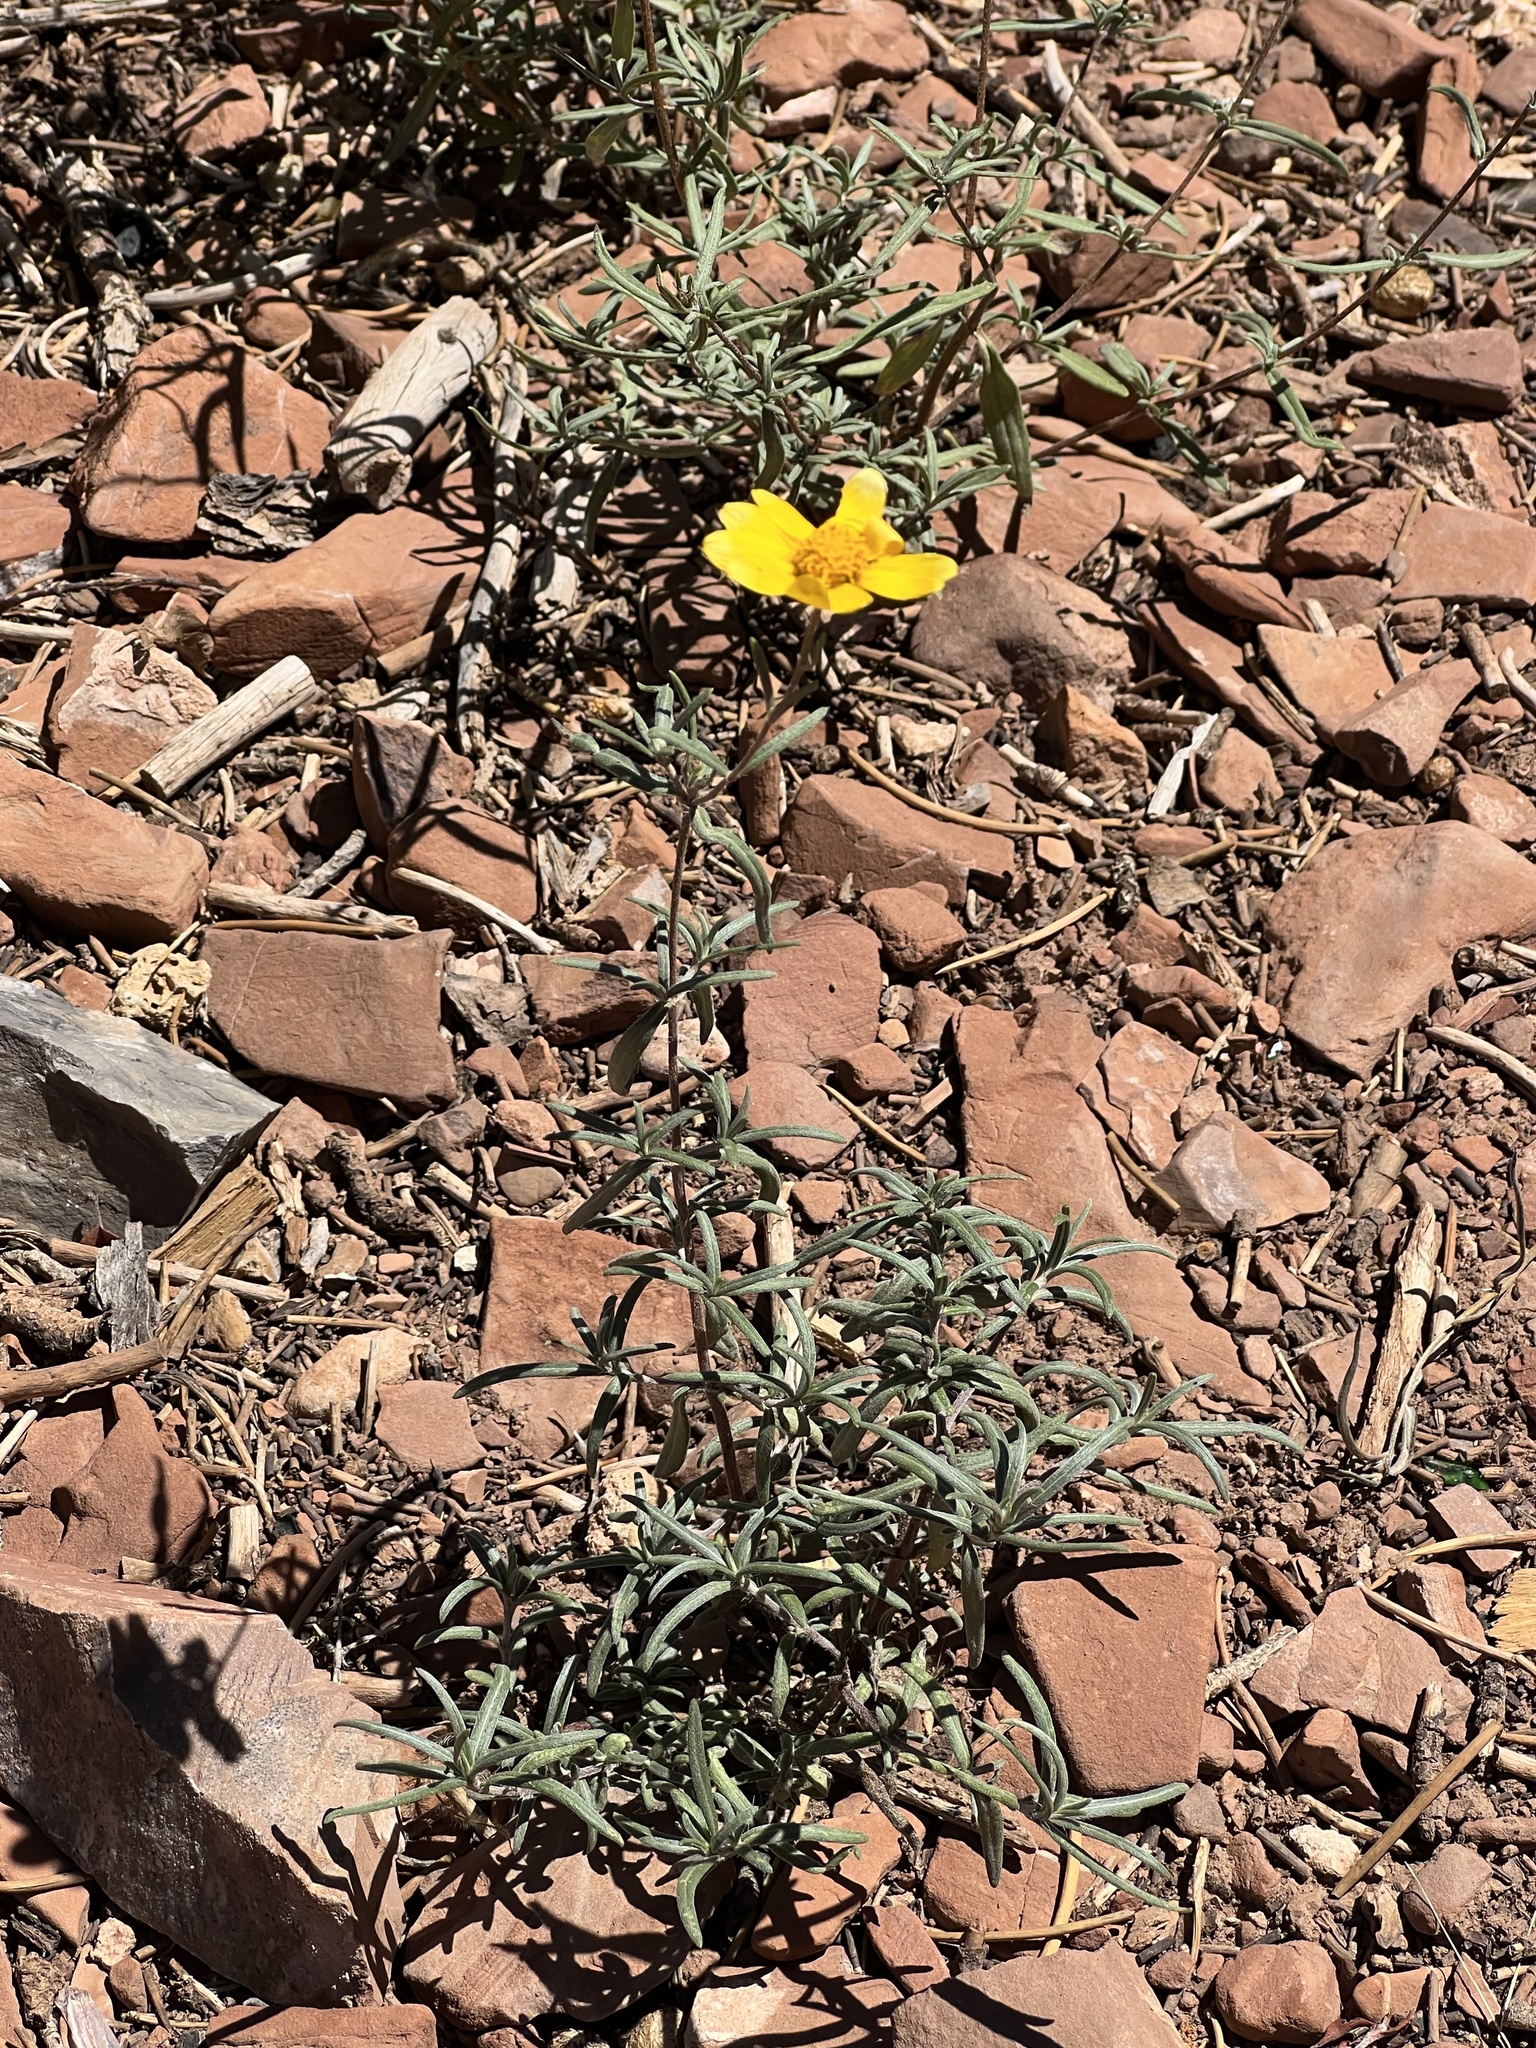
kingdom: Plantae
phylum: Tracheophyta
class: Magnoliopsida
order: Asterales
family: Asteraceae
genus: Heliomeris
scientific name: Heliomeris multiflora
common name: Showy goldeneye
